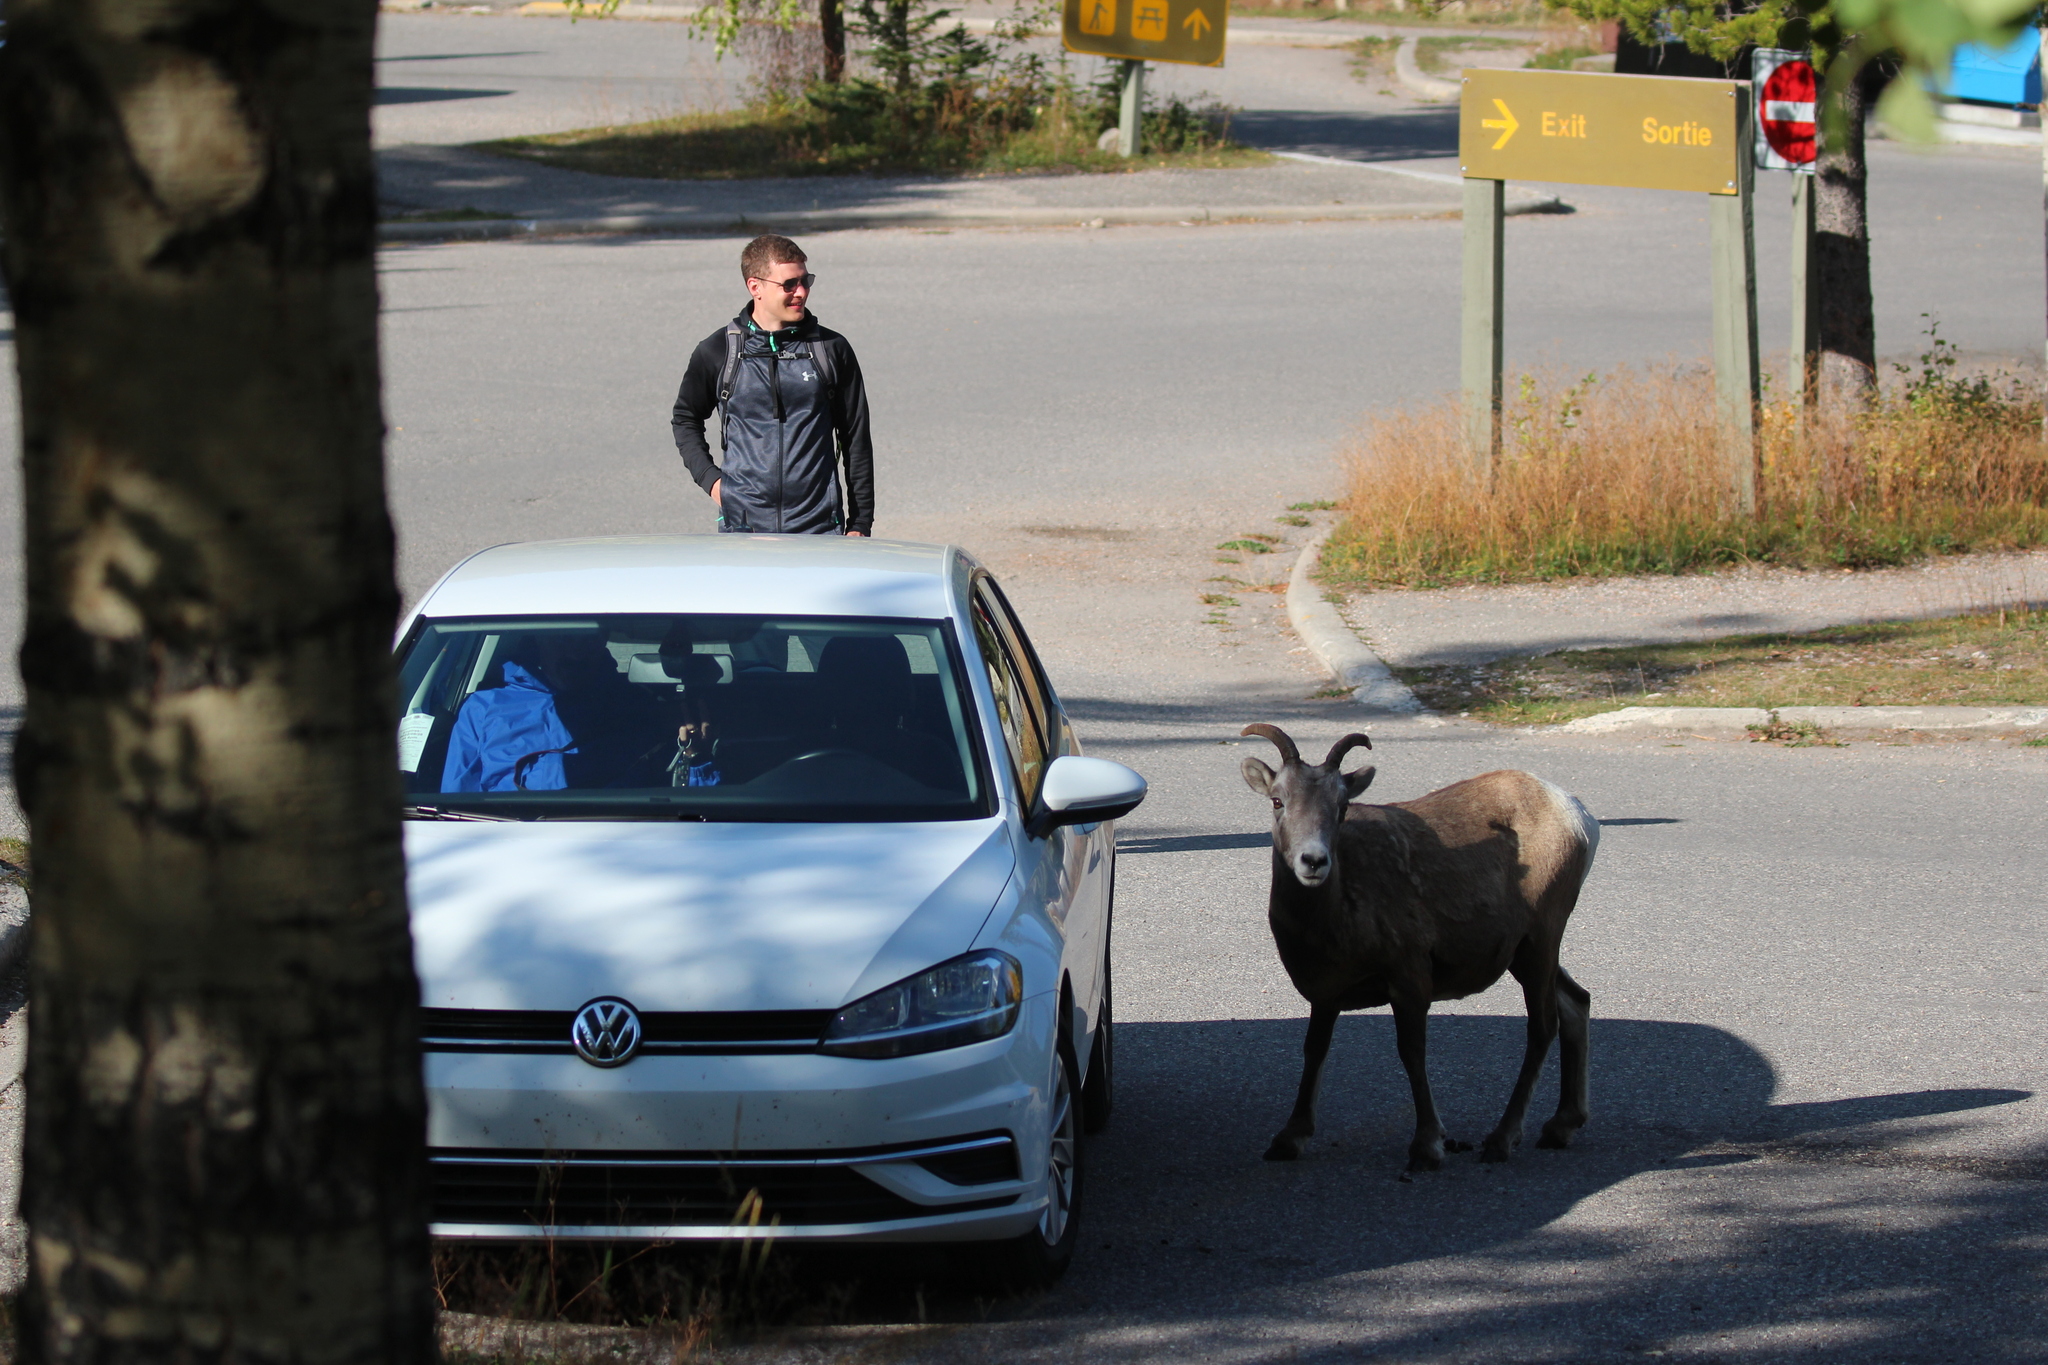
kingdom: Animalia
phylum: Chordata
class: Mammalia
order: Artiodactyla
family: Bovidae
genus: Ovis
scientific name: Ovis canadensis
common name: Bighorn sheep
